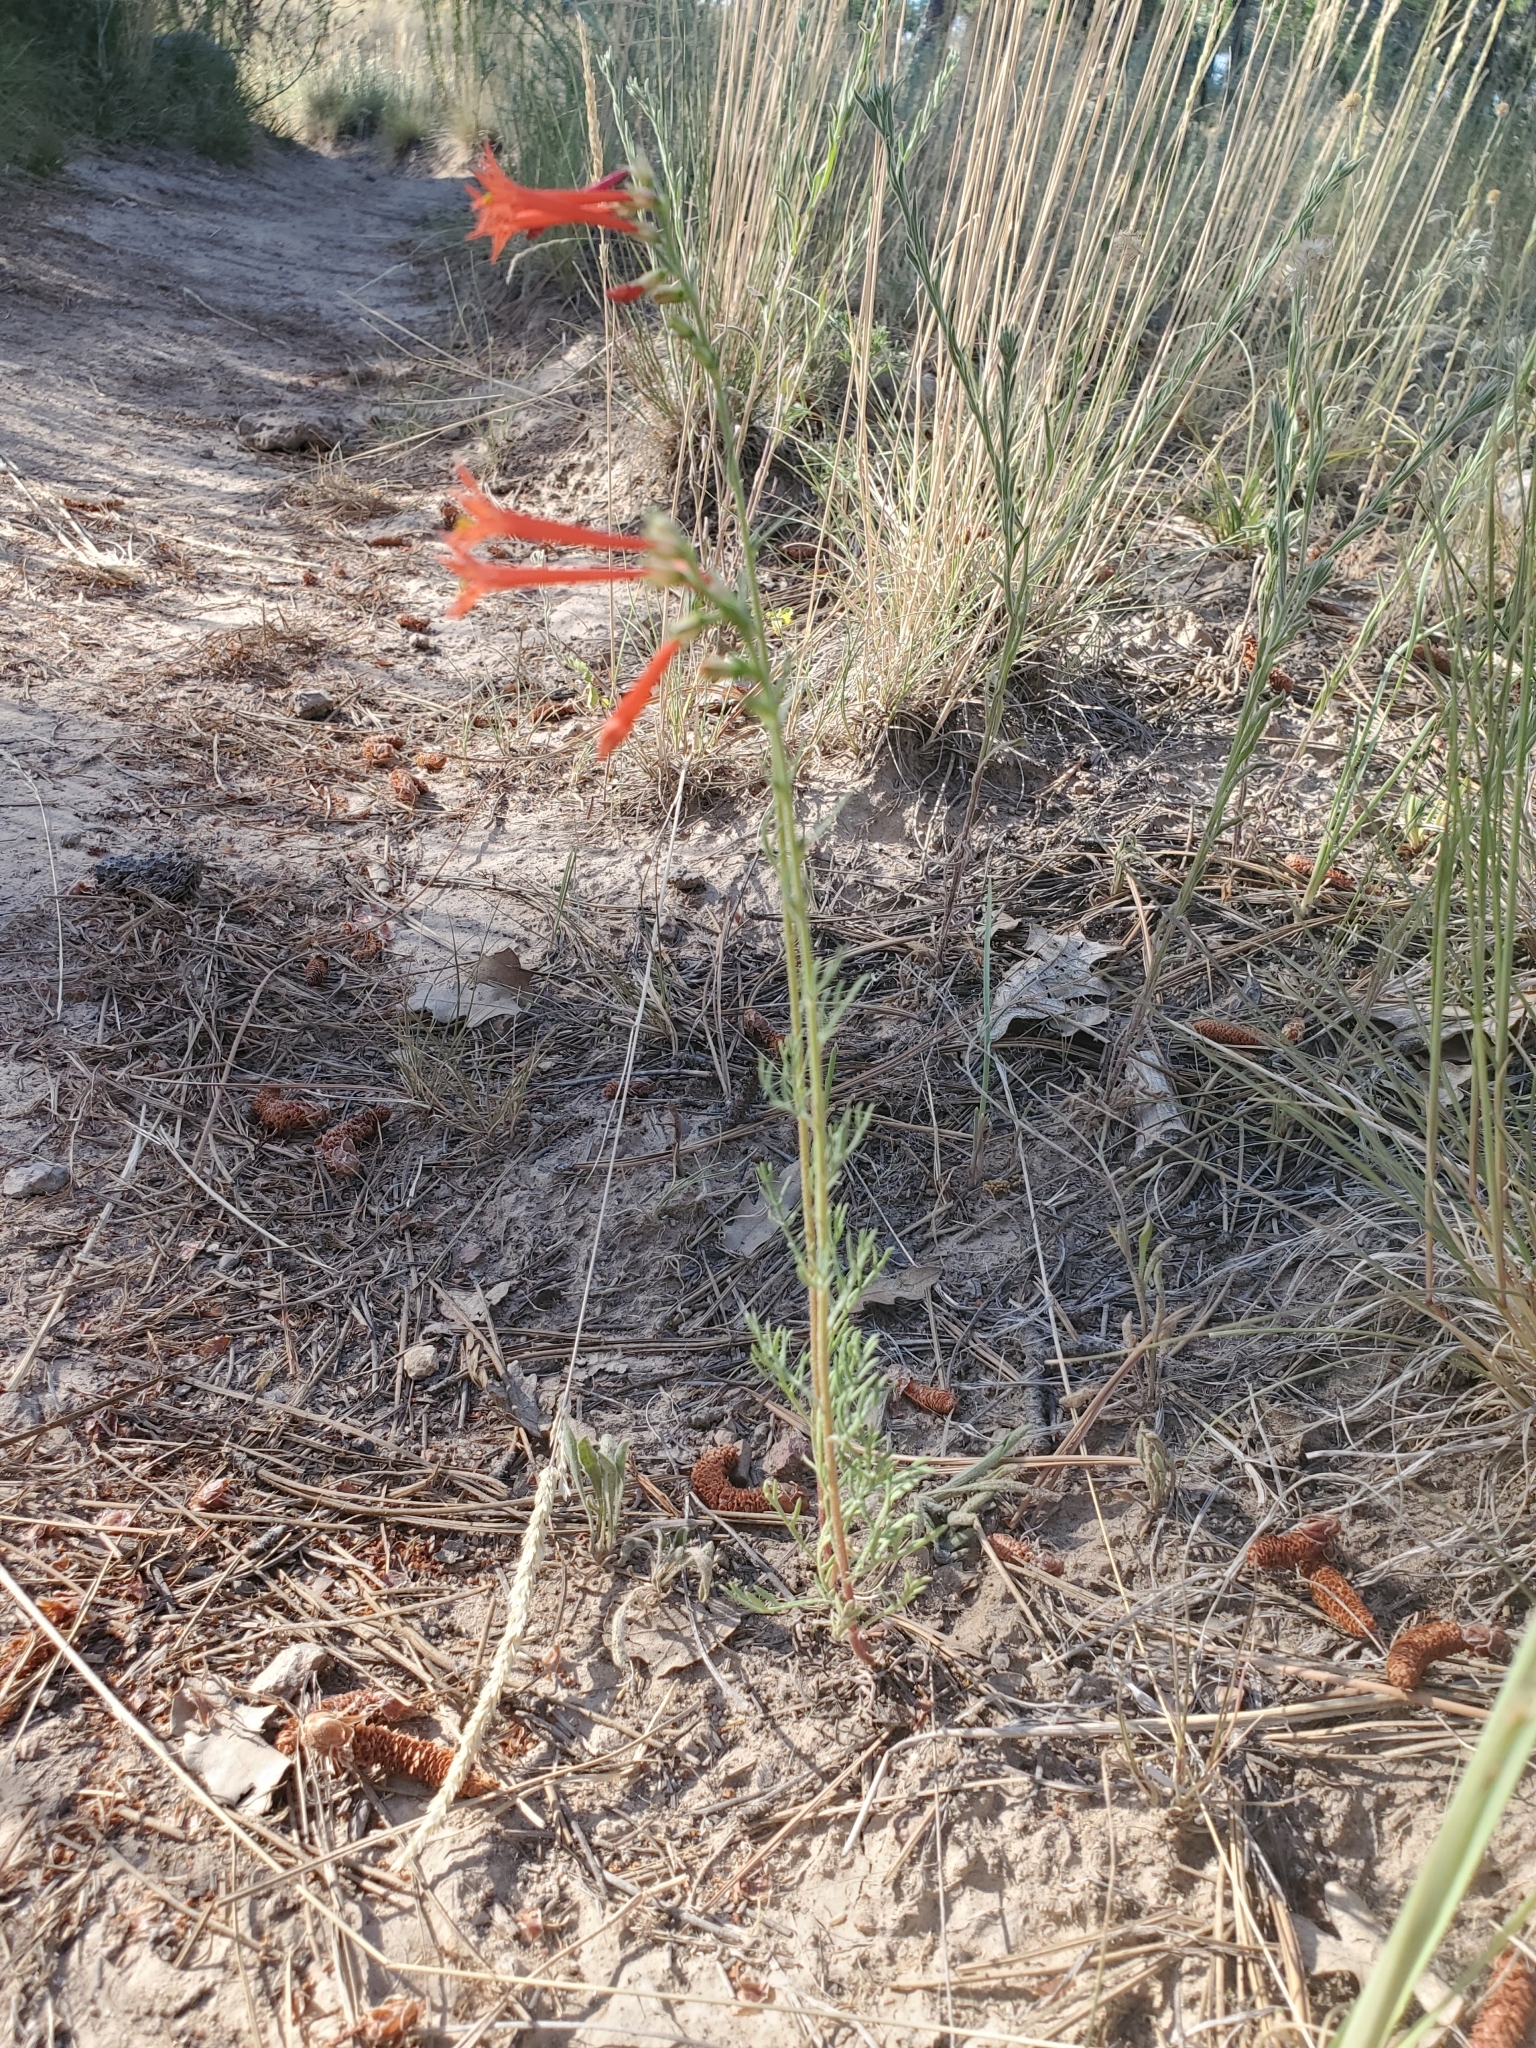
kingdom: Plantae
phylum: Tracheophyta
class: Magnoliopsida
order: Ericales
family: Polemoniaceae
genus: Ipomopsis
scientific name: Ipomopsis aggregata
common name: Scarlet gilia
